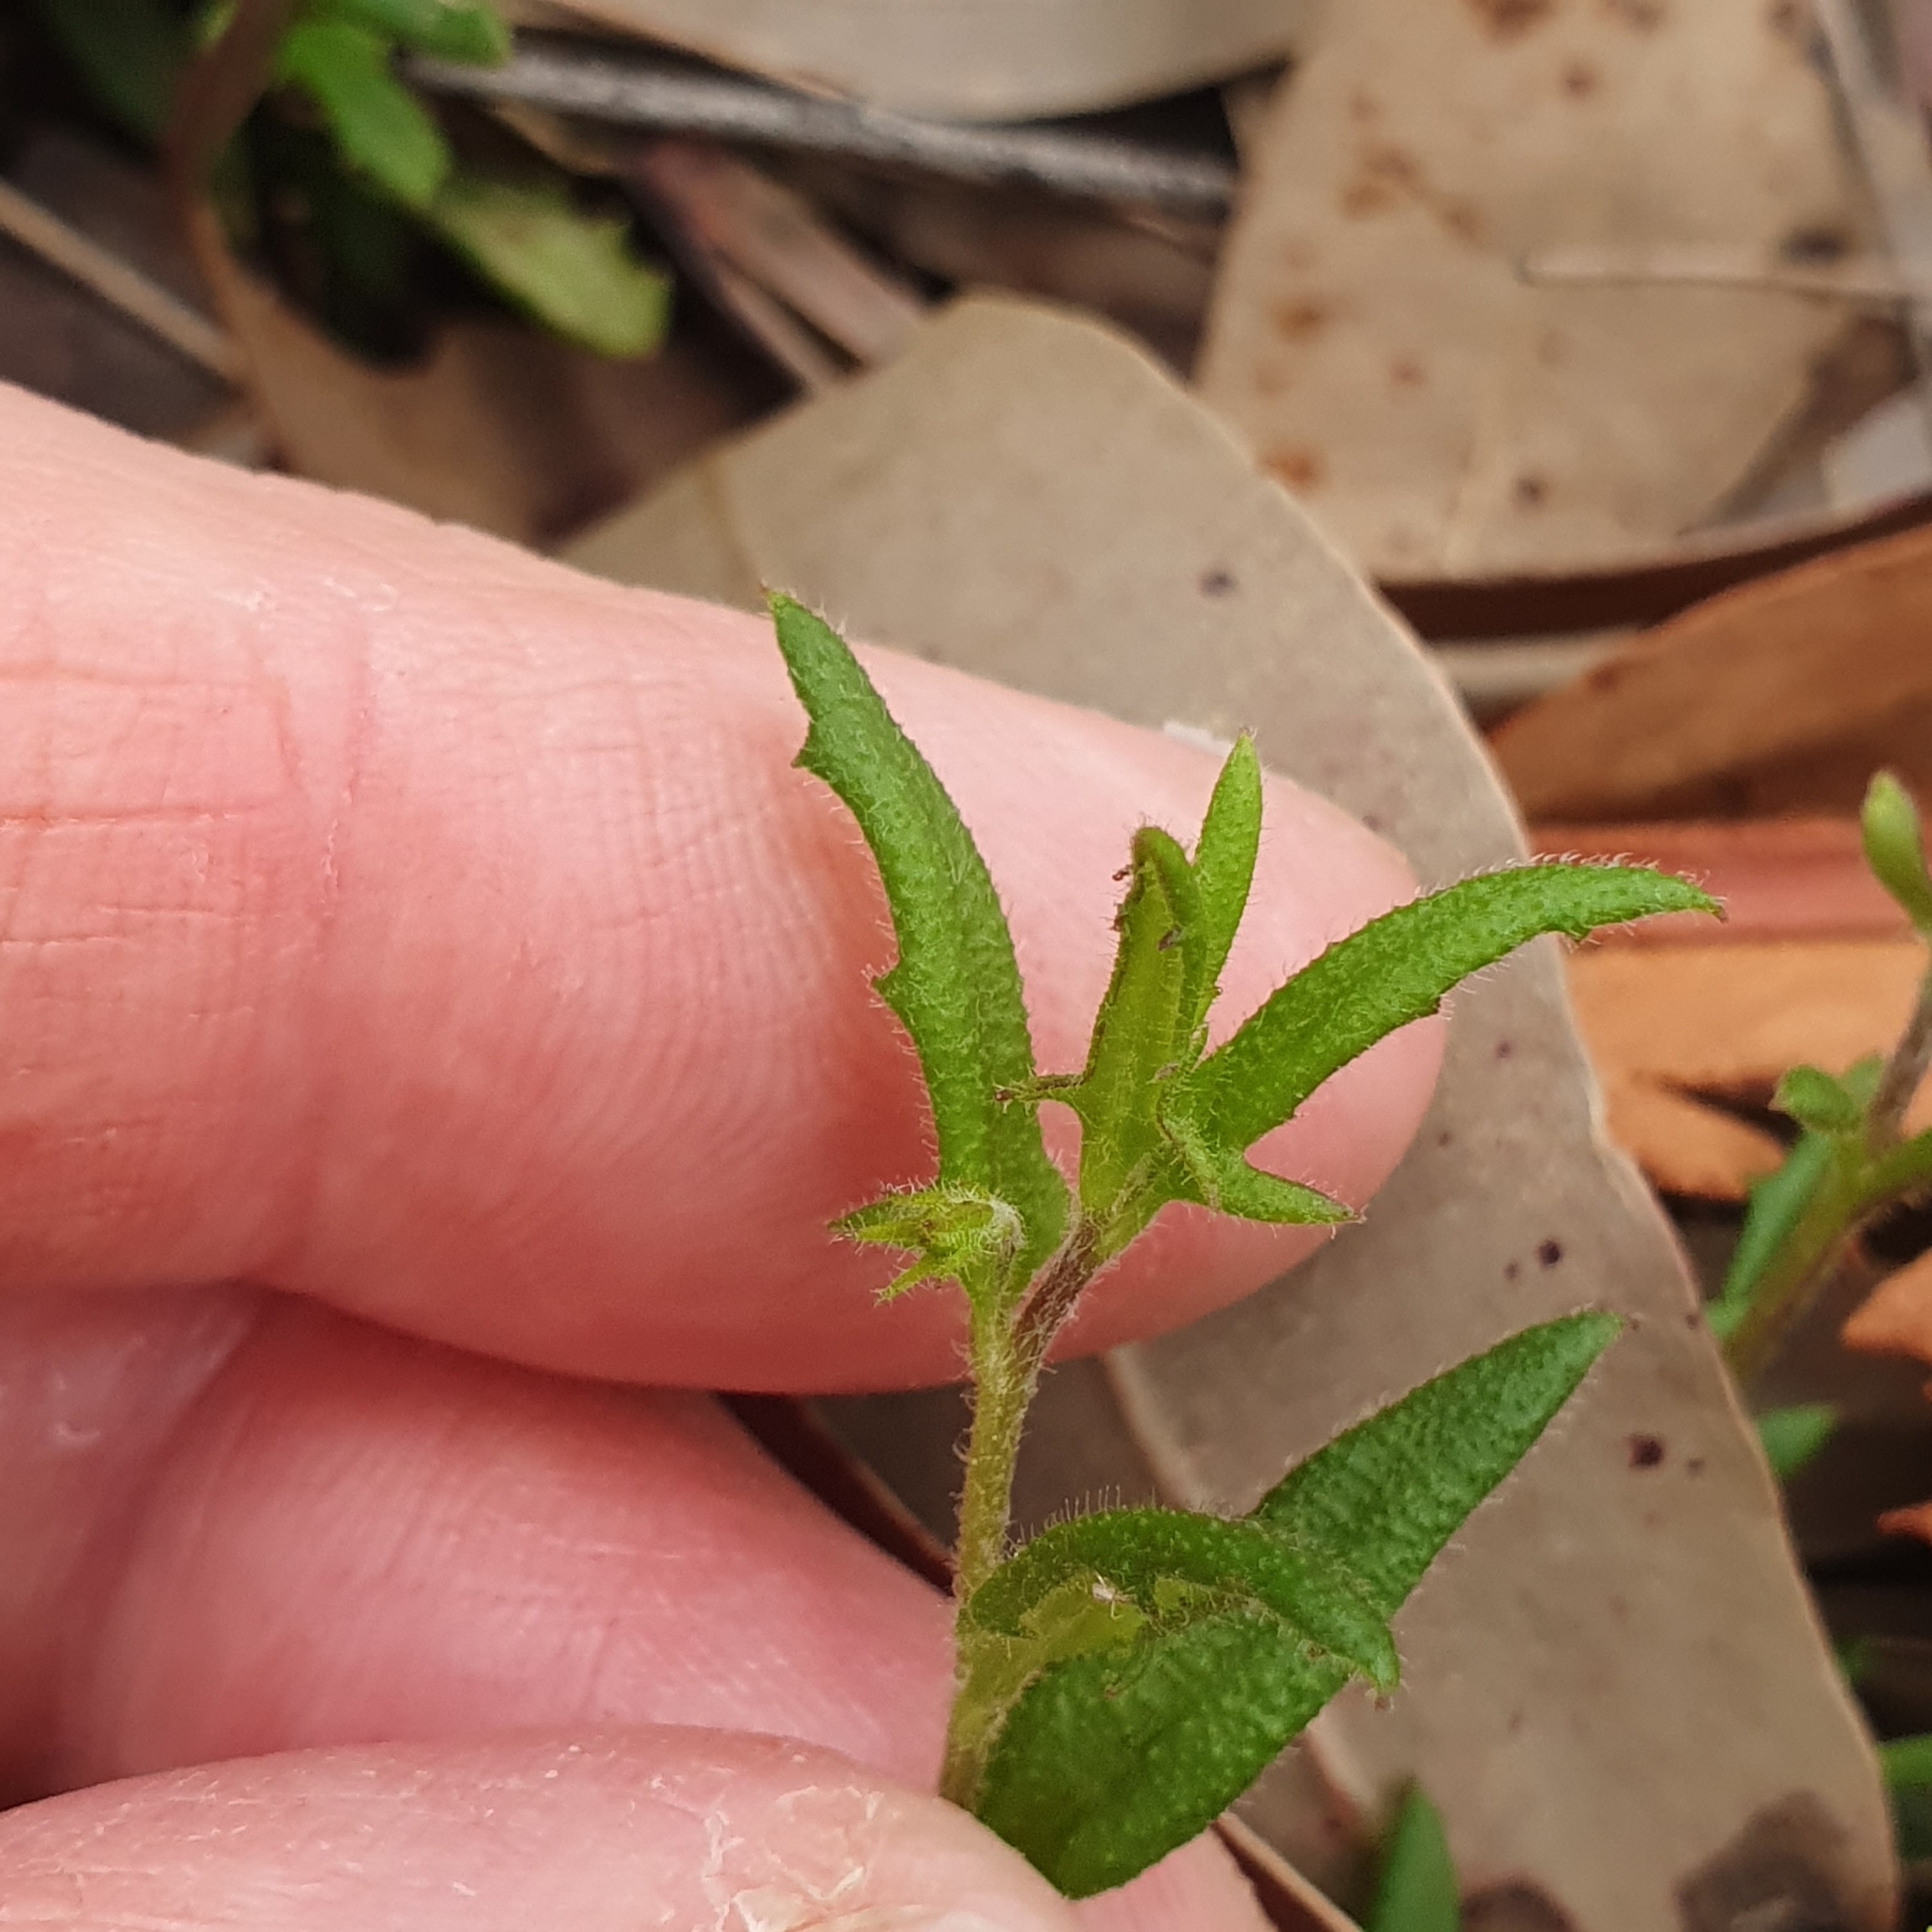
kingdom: Plantae
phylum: Tracheophyta
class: Magnoliopsida
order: Asterales
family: Goodeniaceae
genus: Goodenia
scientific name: Goodenia heterophylla
